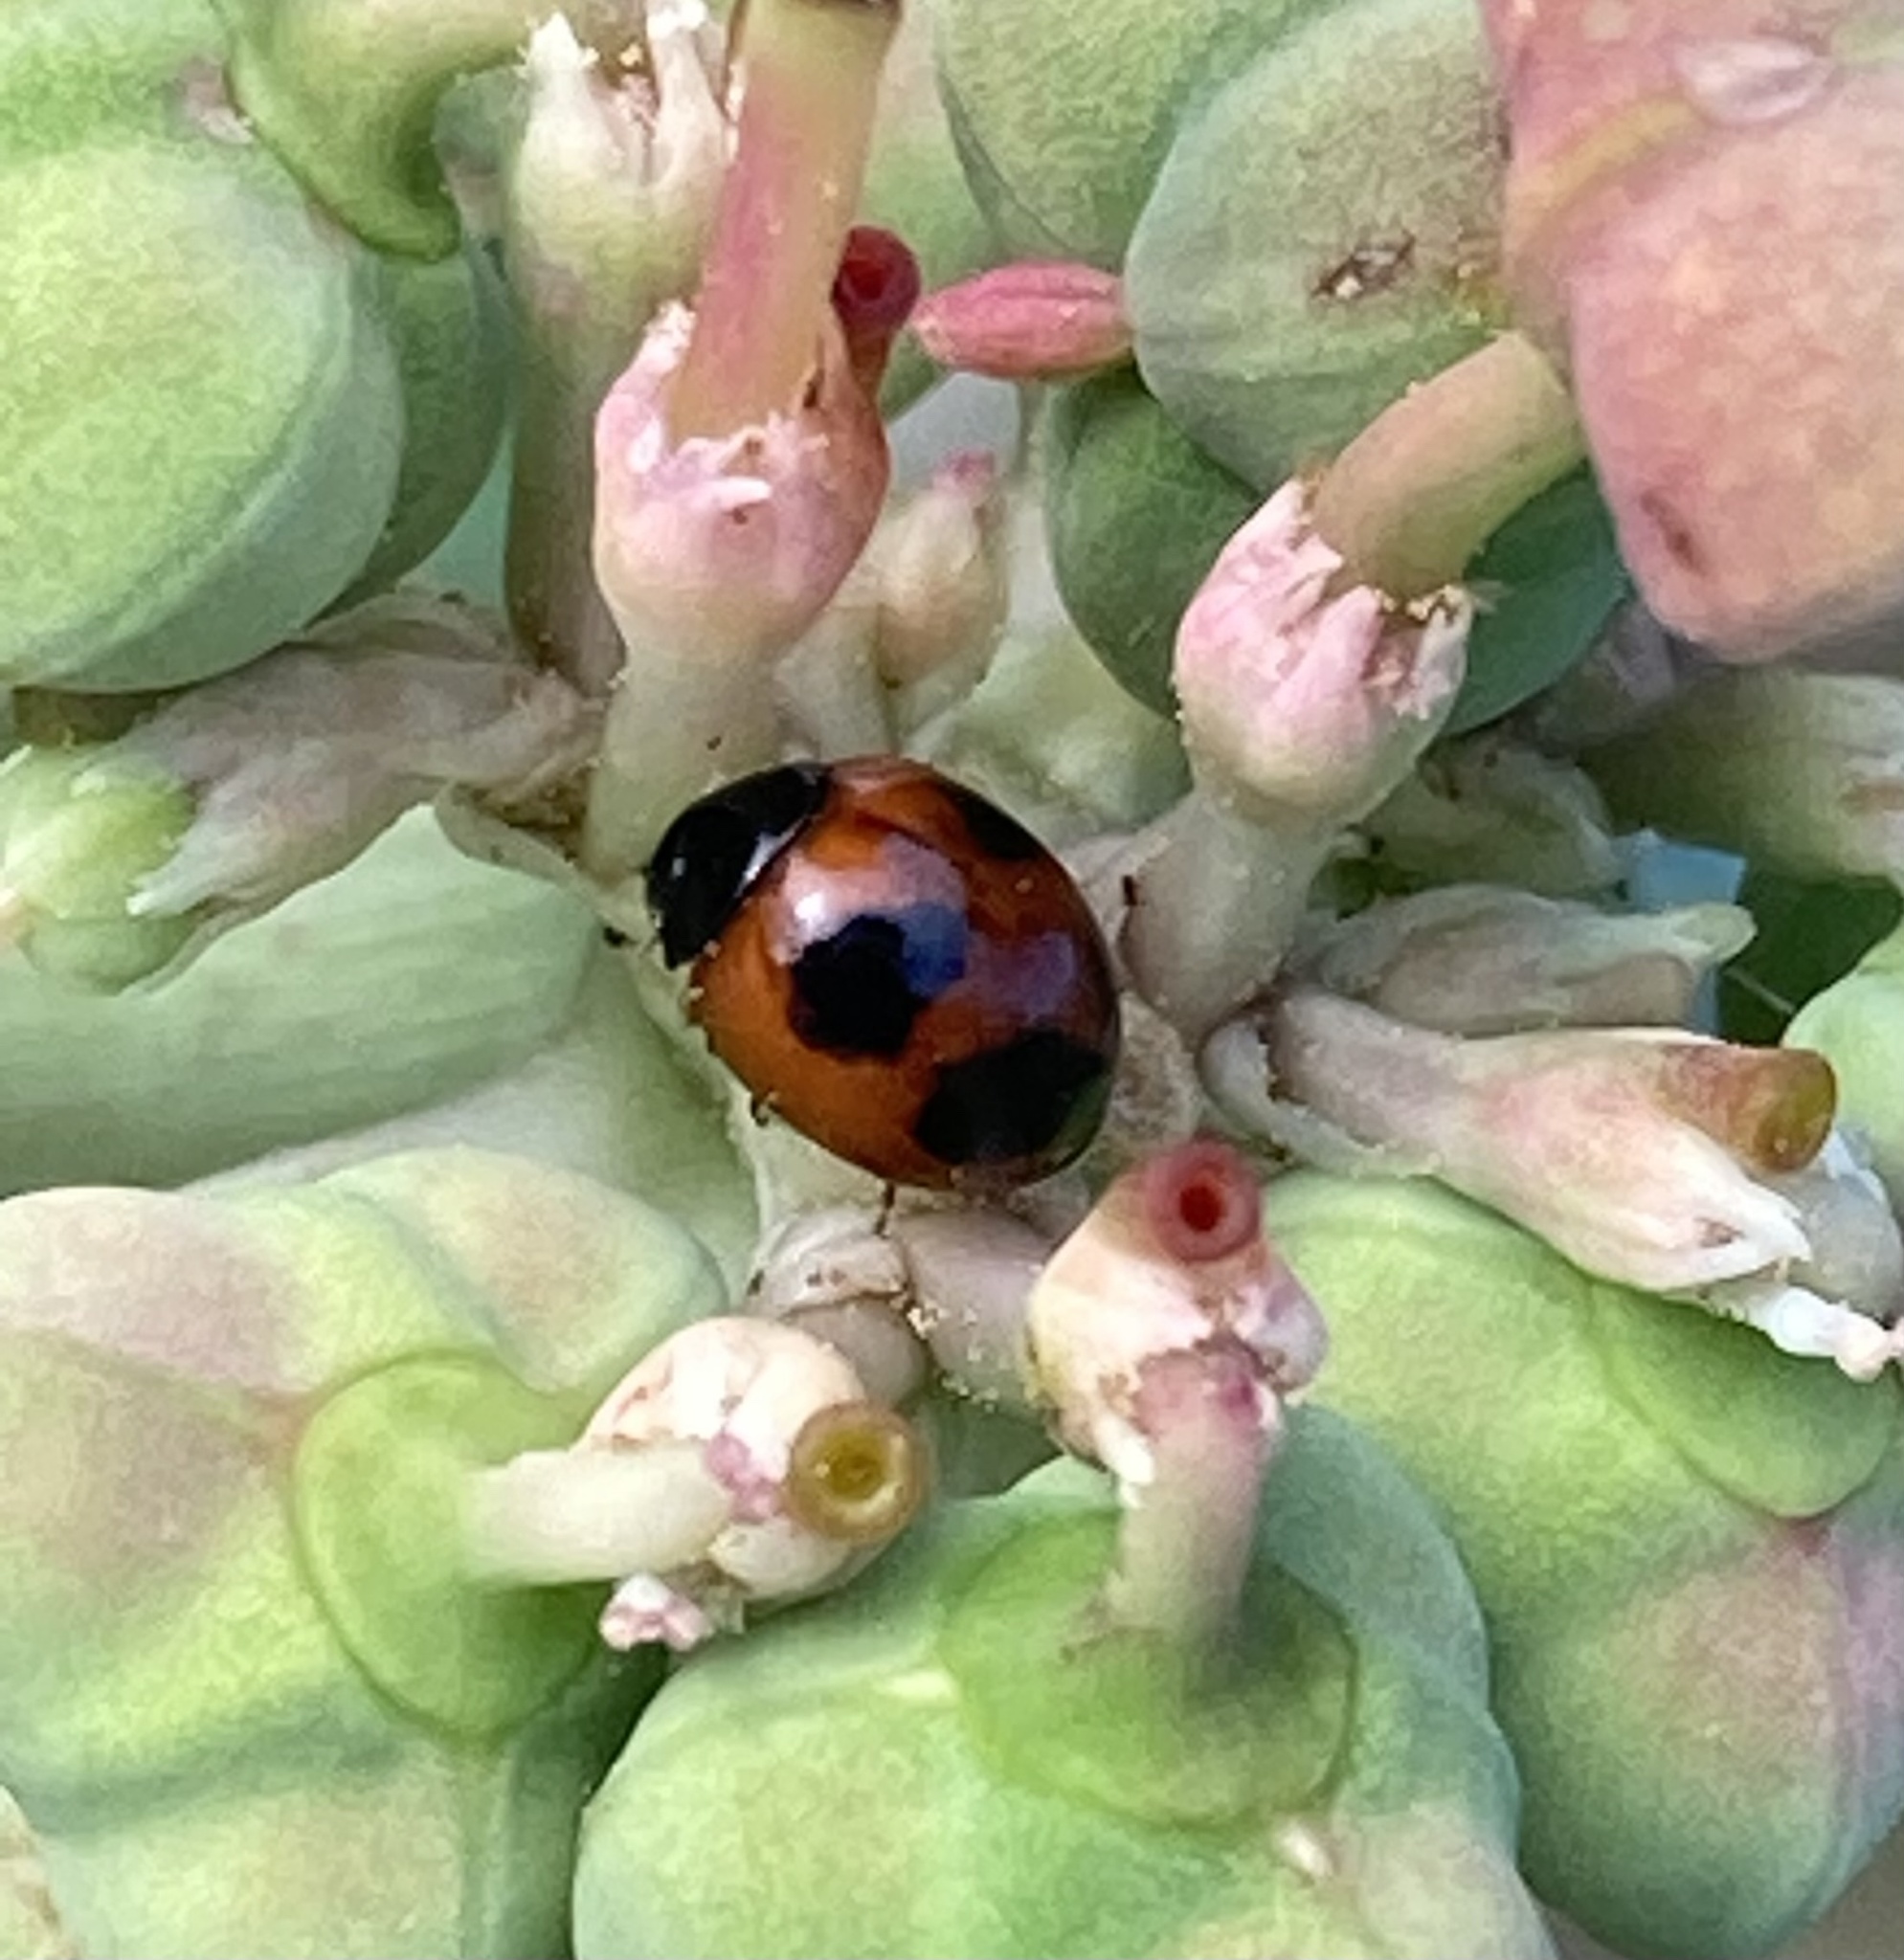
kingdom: Animalia
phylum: Arthropoda
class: Insecta
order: Coleoptera
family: Coccinellidae
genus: Exochomus
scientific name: Exochomus childreni
